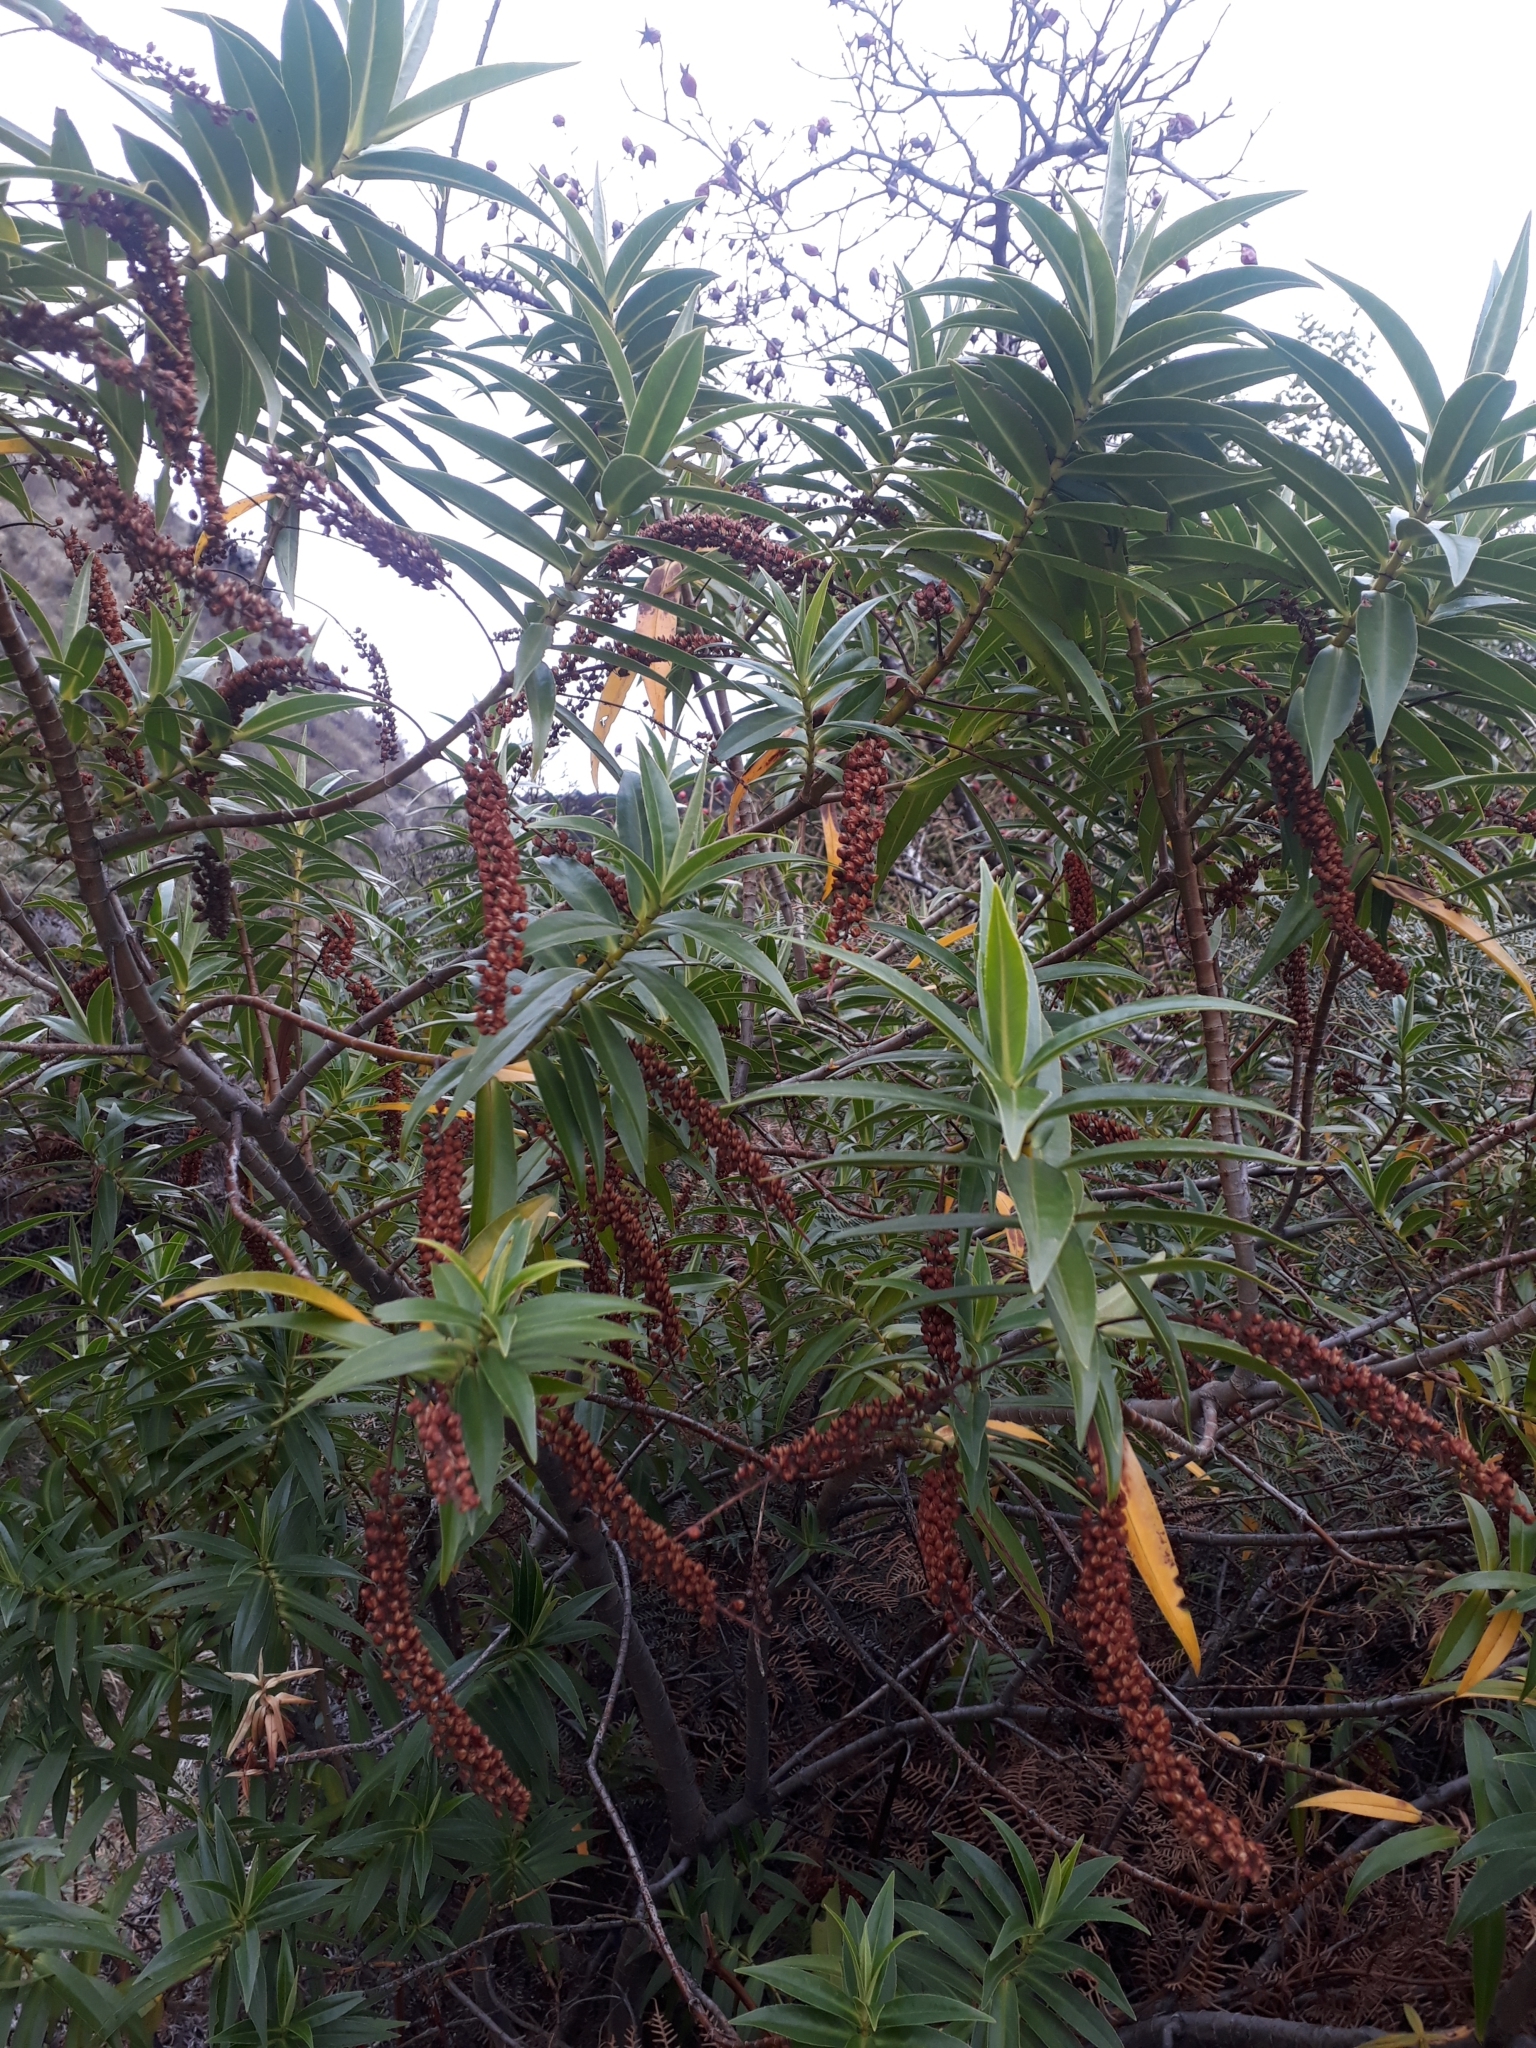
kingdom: Plantae
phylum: Tracheophyta
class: Magnoliopsida
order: Lamiales
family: Plantaginaceae
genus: Veronica
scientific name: Veronica salicifolia
